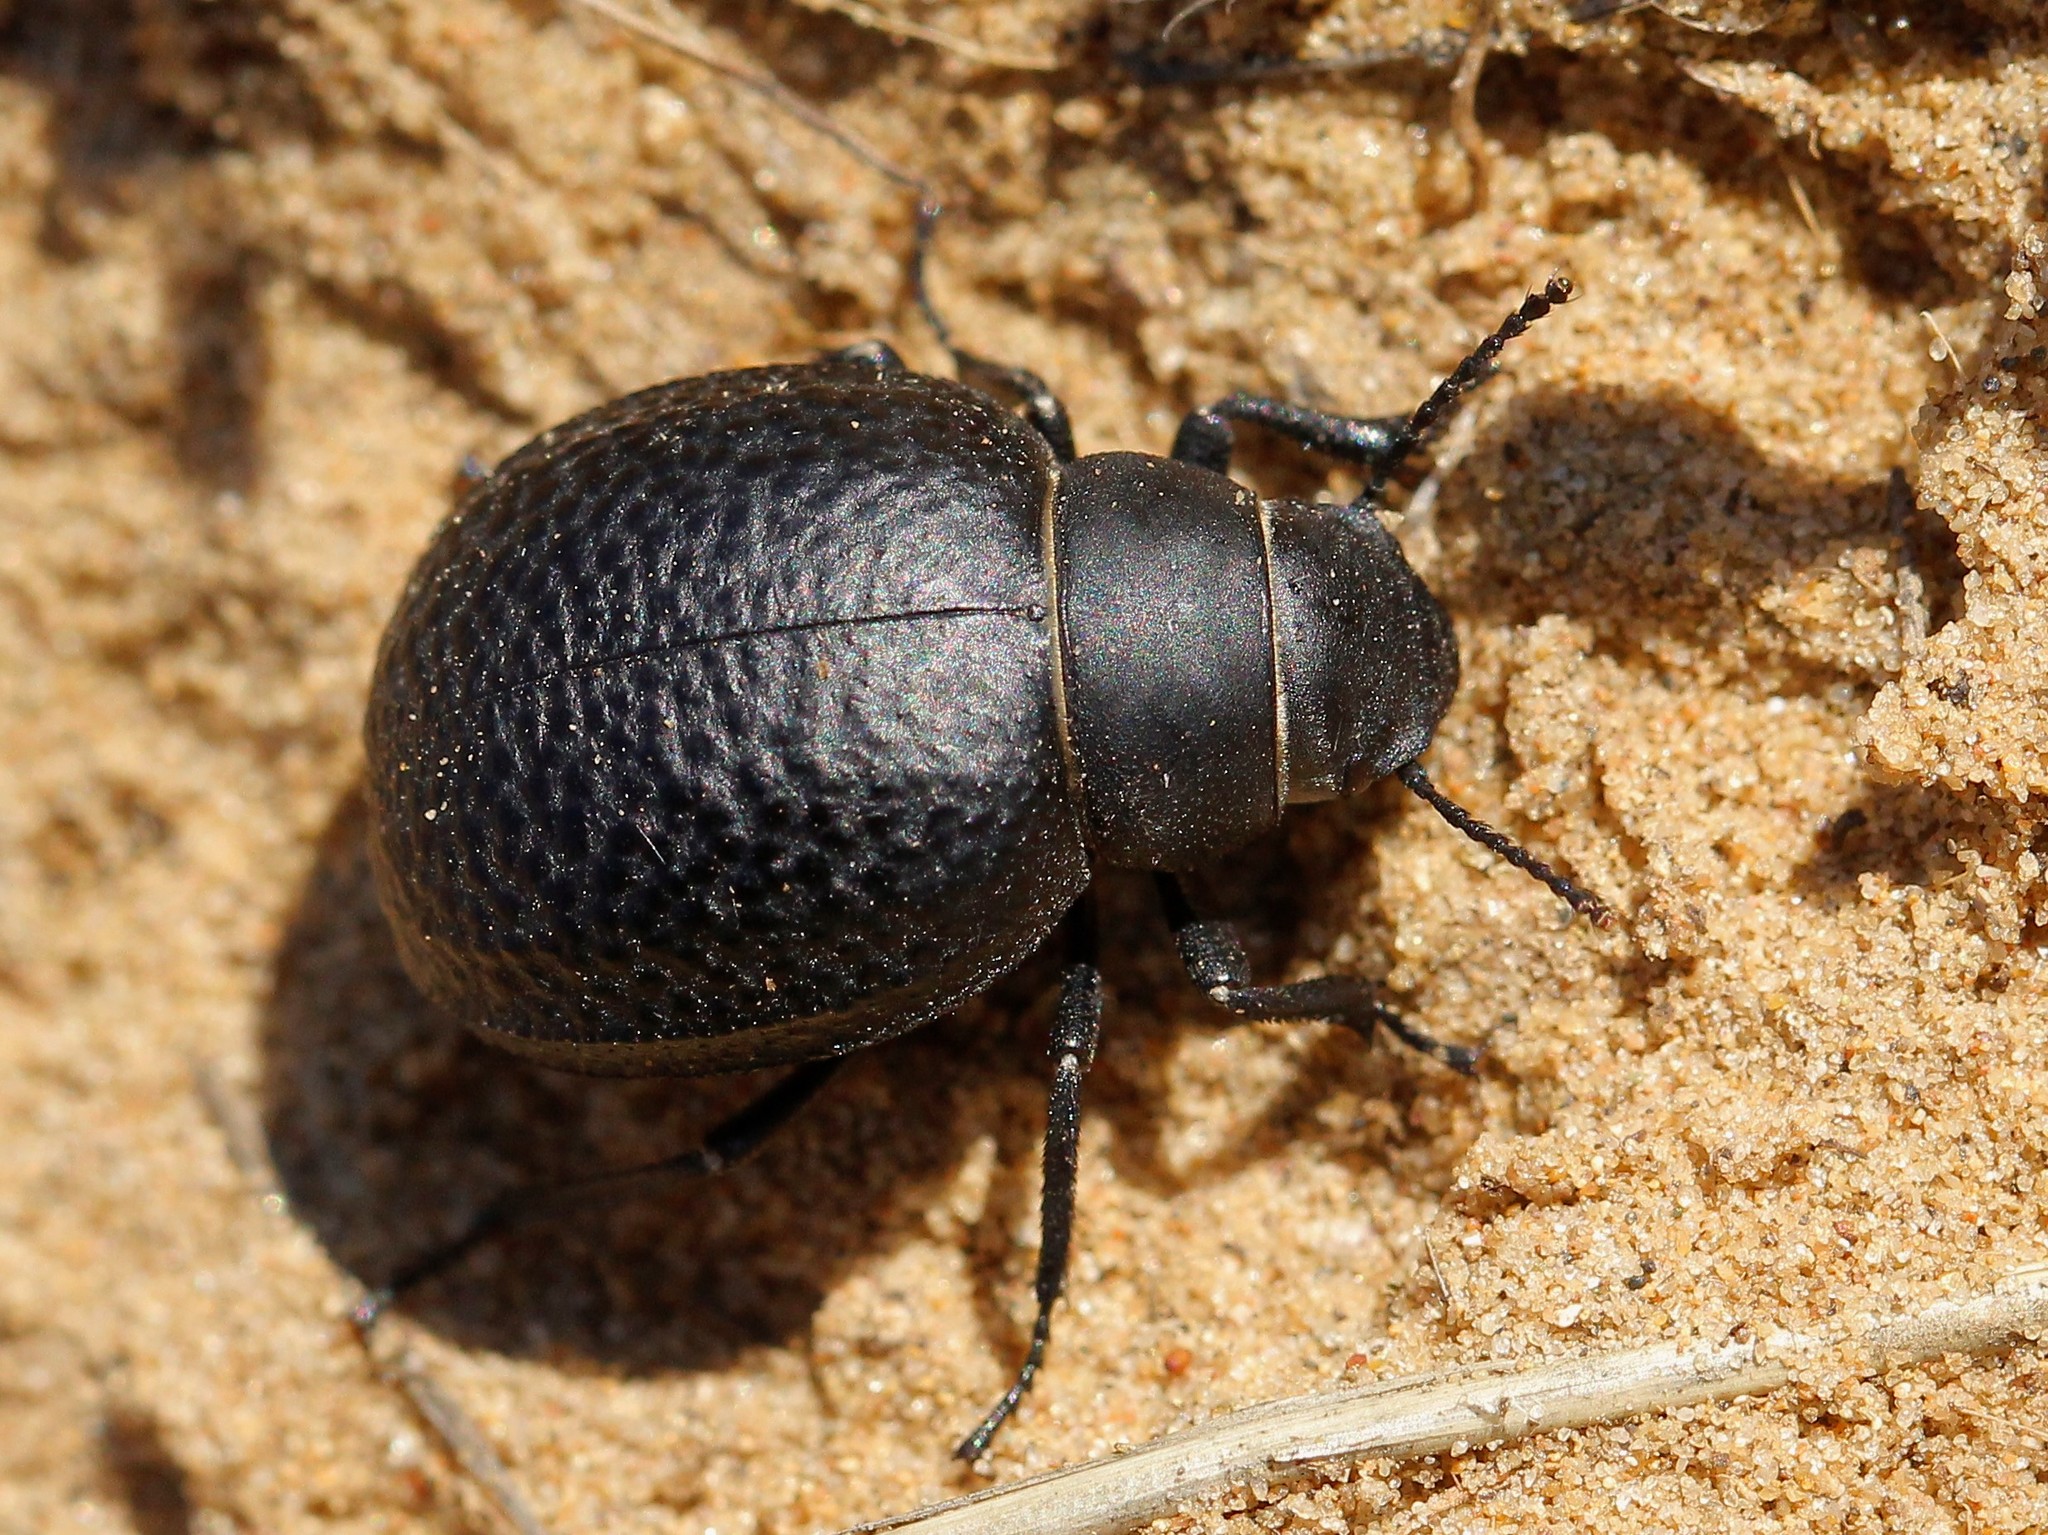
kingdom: Animalia
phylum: Arthropoda
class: Insecta
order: Coleoptera
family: Tenebrionidae
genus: Pimelia
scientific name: Pimelia subglobosa
